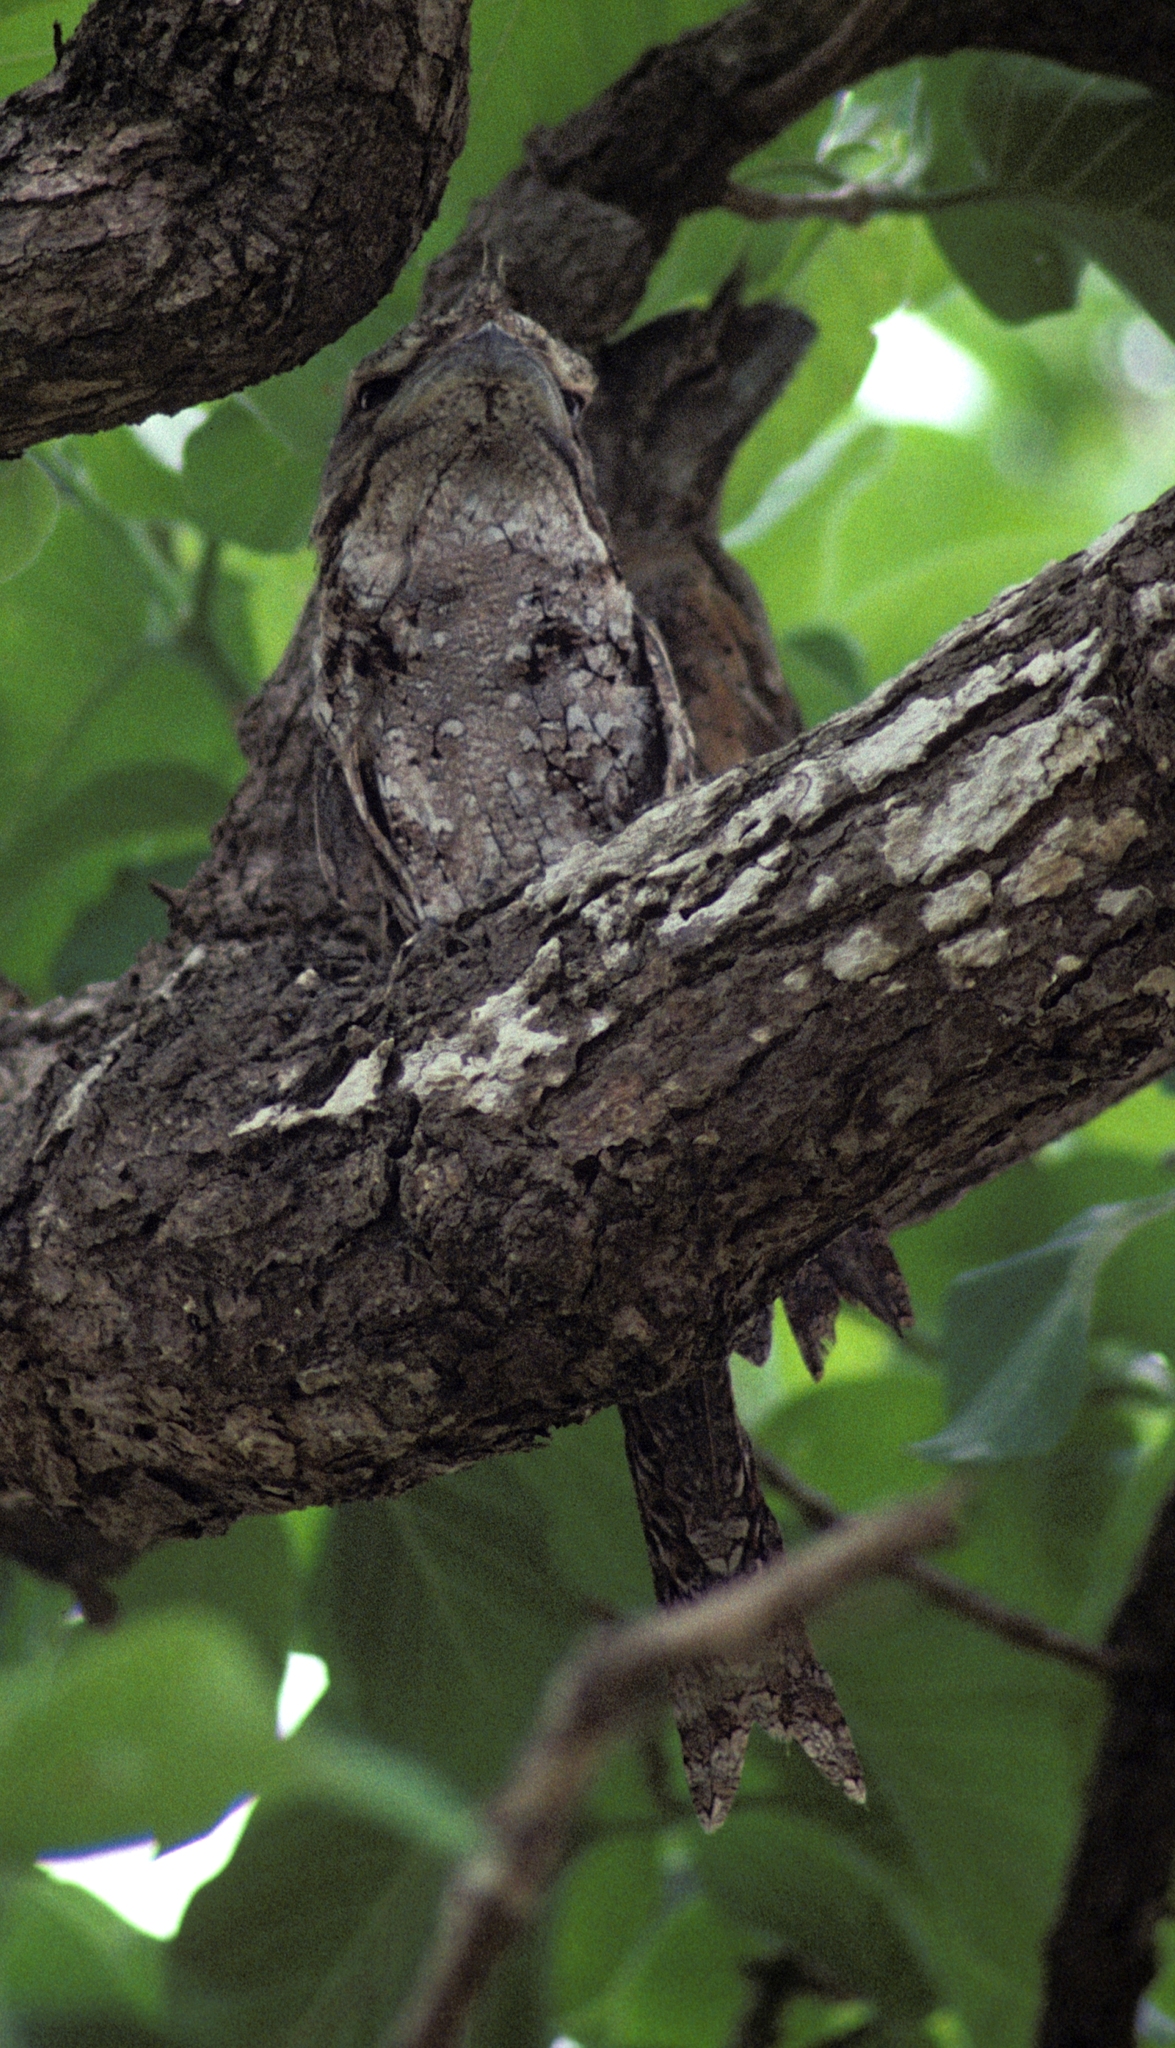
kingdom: Animalia
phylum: Chordata
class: Aves
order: Caprimulgiformes
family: Podargidae
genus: Podargus
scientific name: Podargus papuensis
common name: Papuan frogmouth
